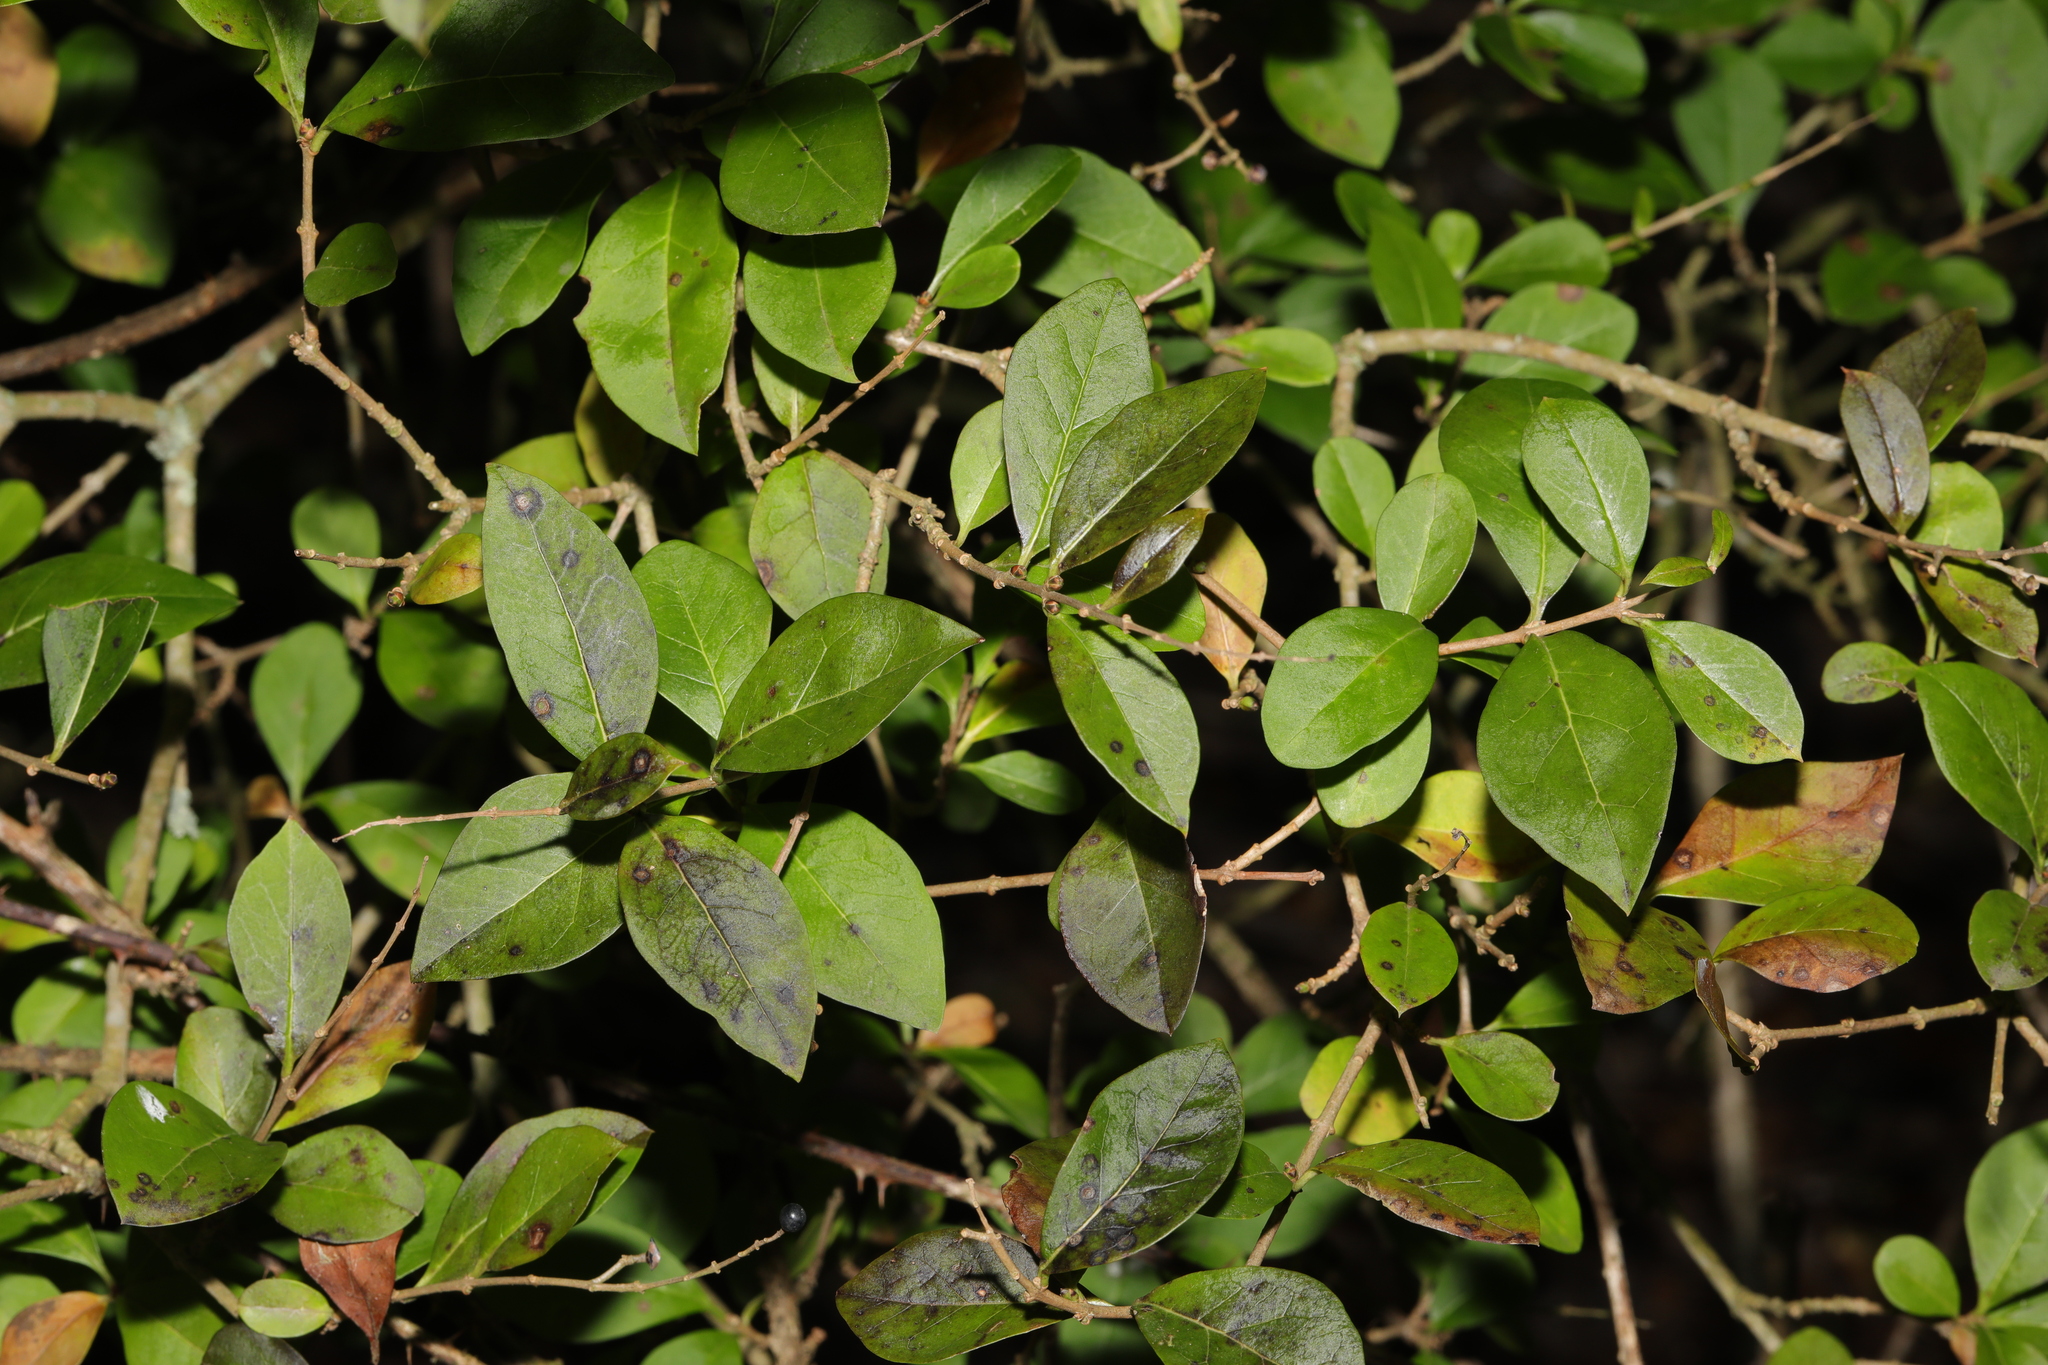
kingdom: Plantae
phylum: Tracheophyta
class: Magnoliopsida
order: Lamiales
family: Oleaceae
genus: Ligustrum
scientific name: Ligustrum ovalifolium
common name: California privet
